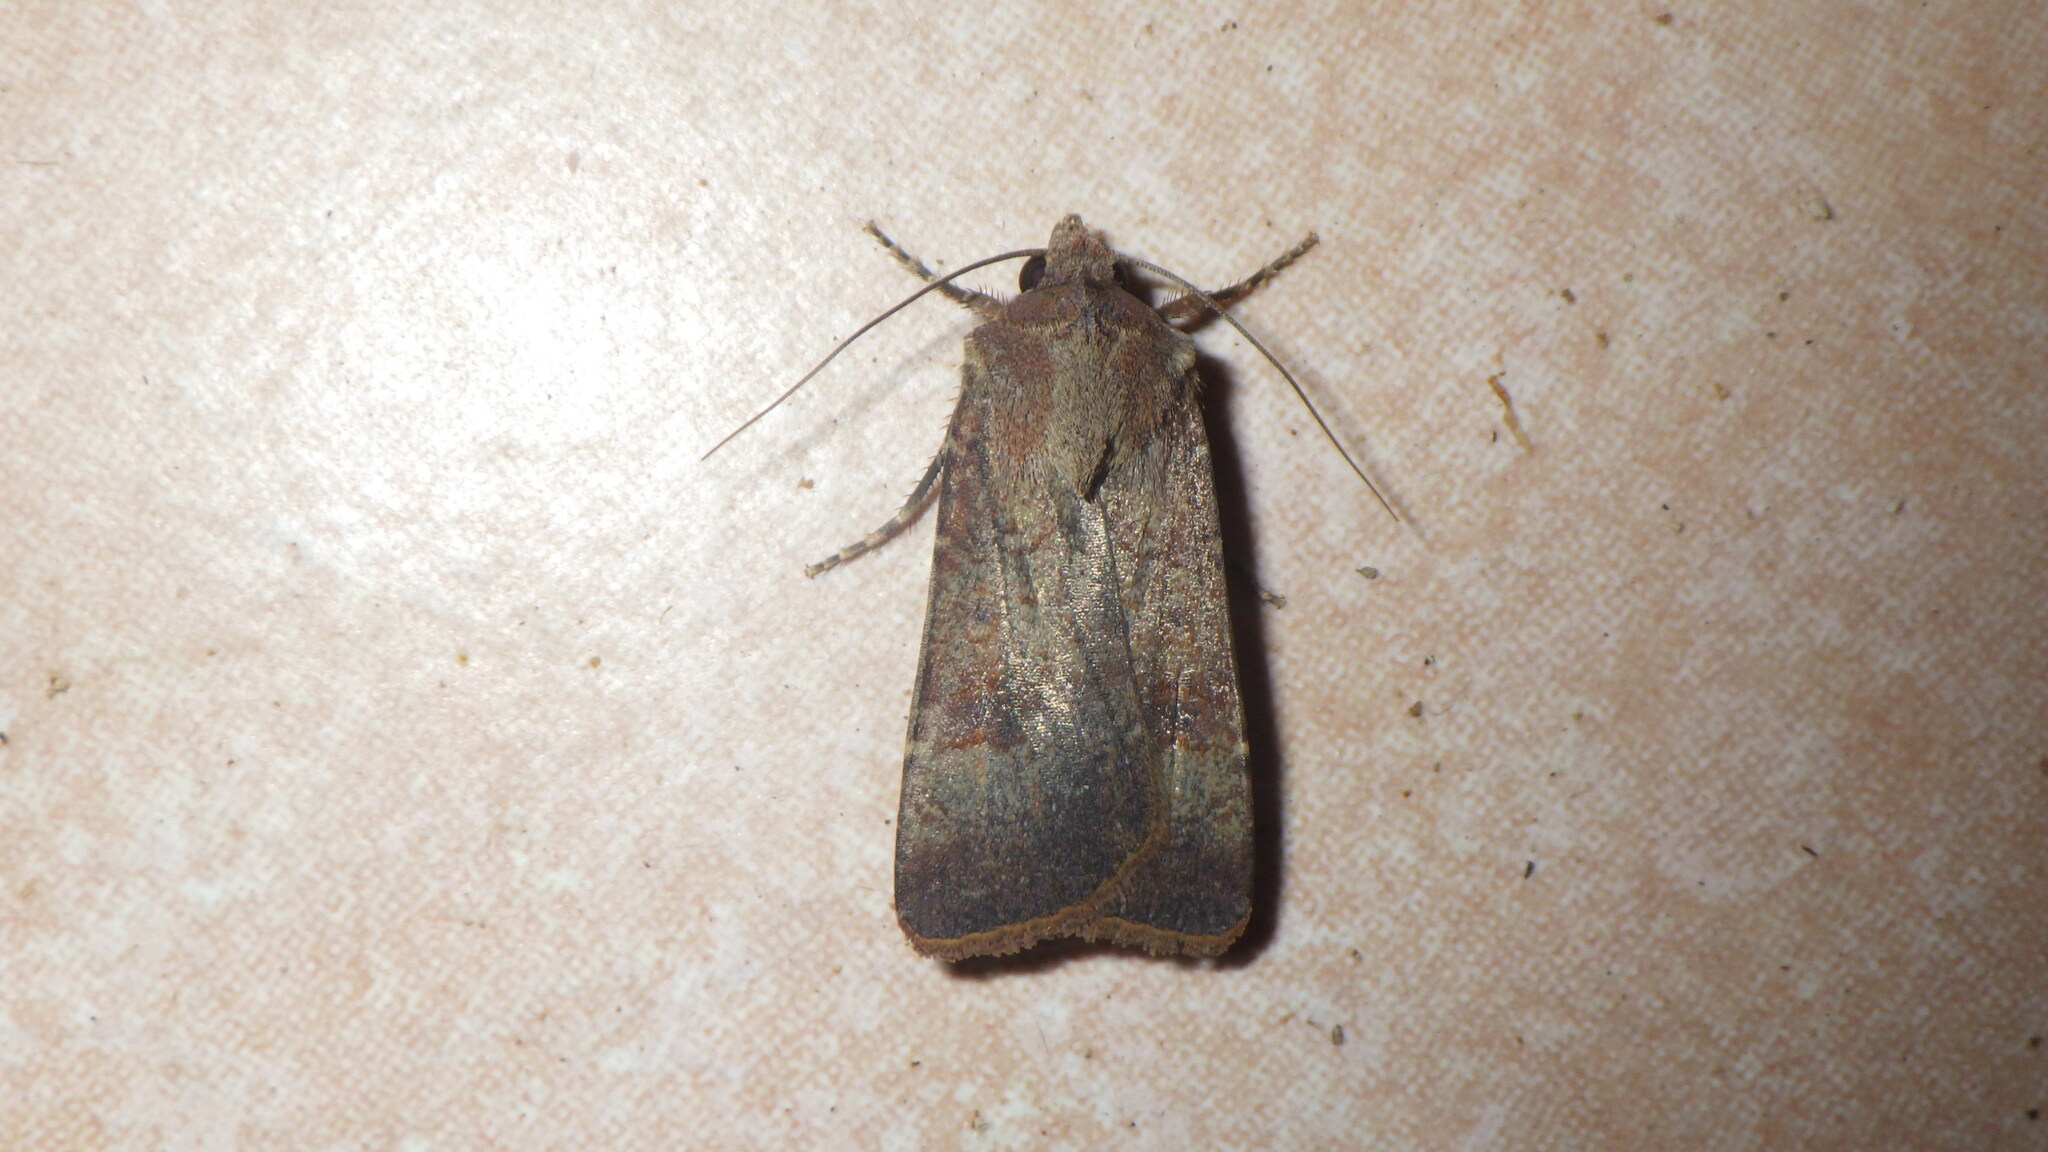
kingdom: Animalia
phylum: Arthropoda
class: Insecta
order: Lepidoptera
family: Noctuidae
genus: Agrotis
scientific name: Agrotis trux
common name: Crescent dart
